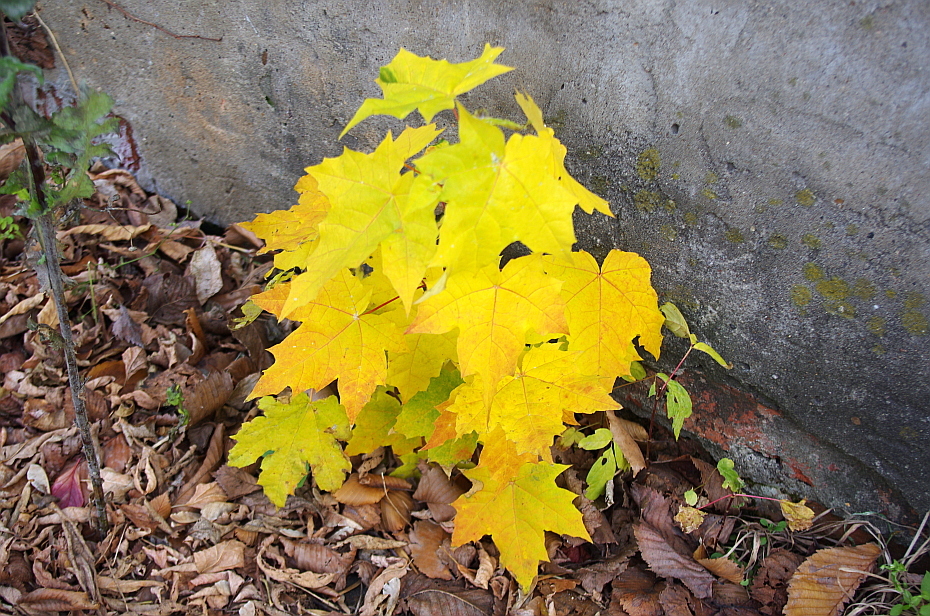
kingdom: Plantae
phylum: Tracheophyta
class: Magnoliopsida
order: Sapindales
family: Sapindaceae
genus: Acer
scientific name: Acer platanoides
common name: Norway maple
